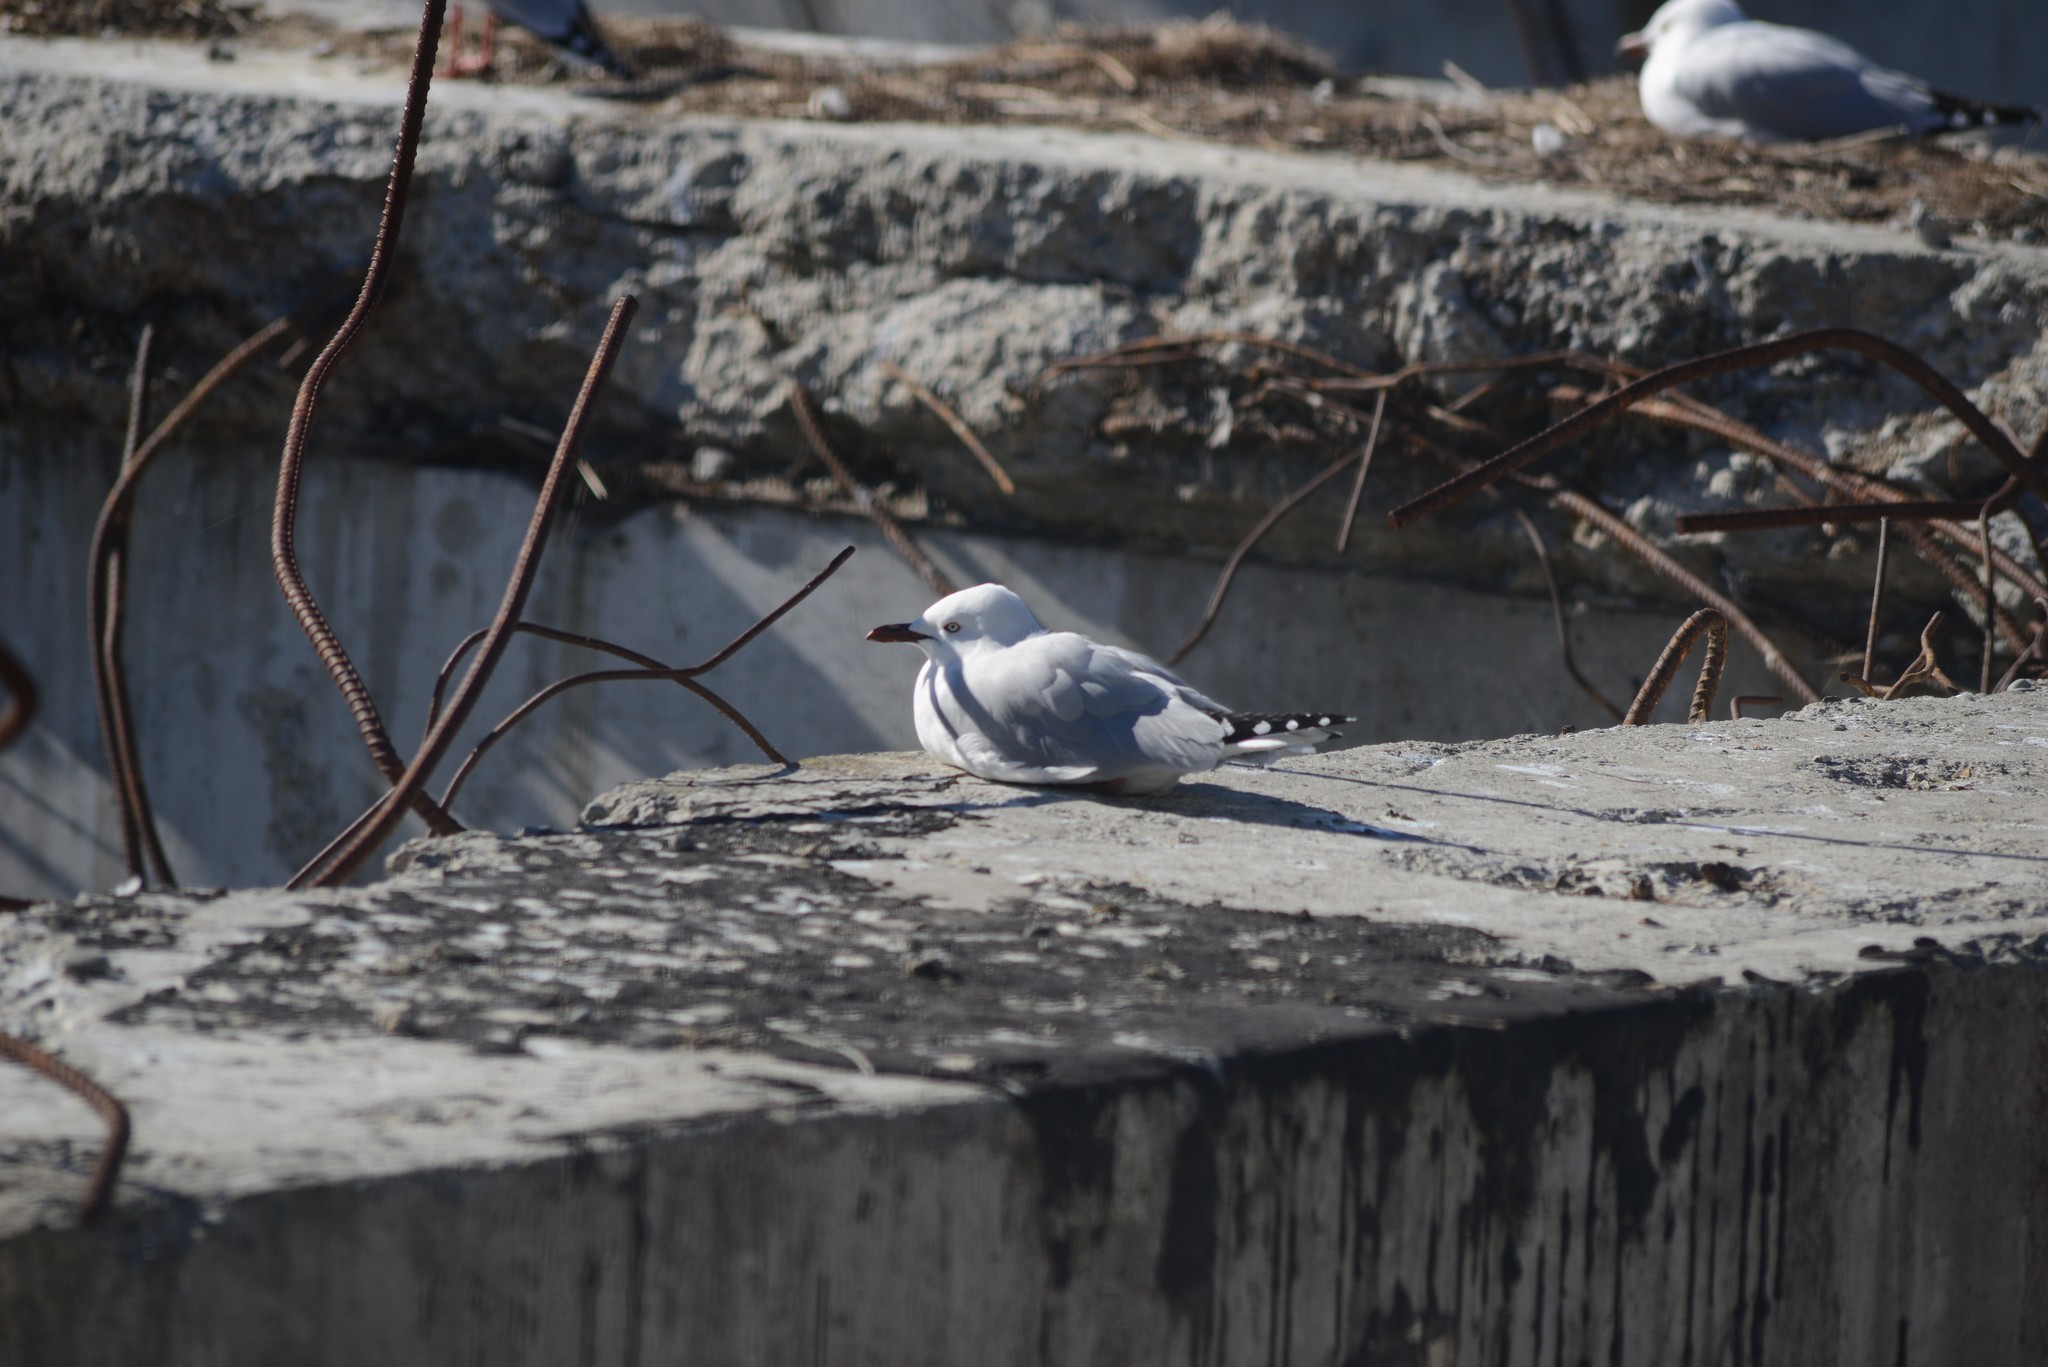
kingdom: Animalia
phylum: Chordata
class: Aves
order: Charadriiformes
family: Laridae
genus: Chroicocephalus
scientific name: Chroicocephalus novaehollandiae
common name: Silver gull
